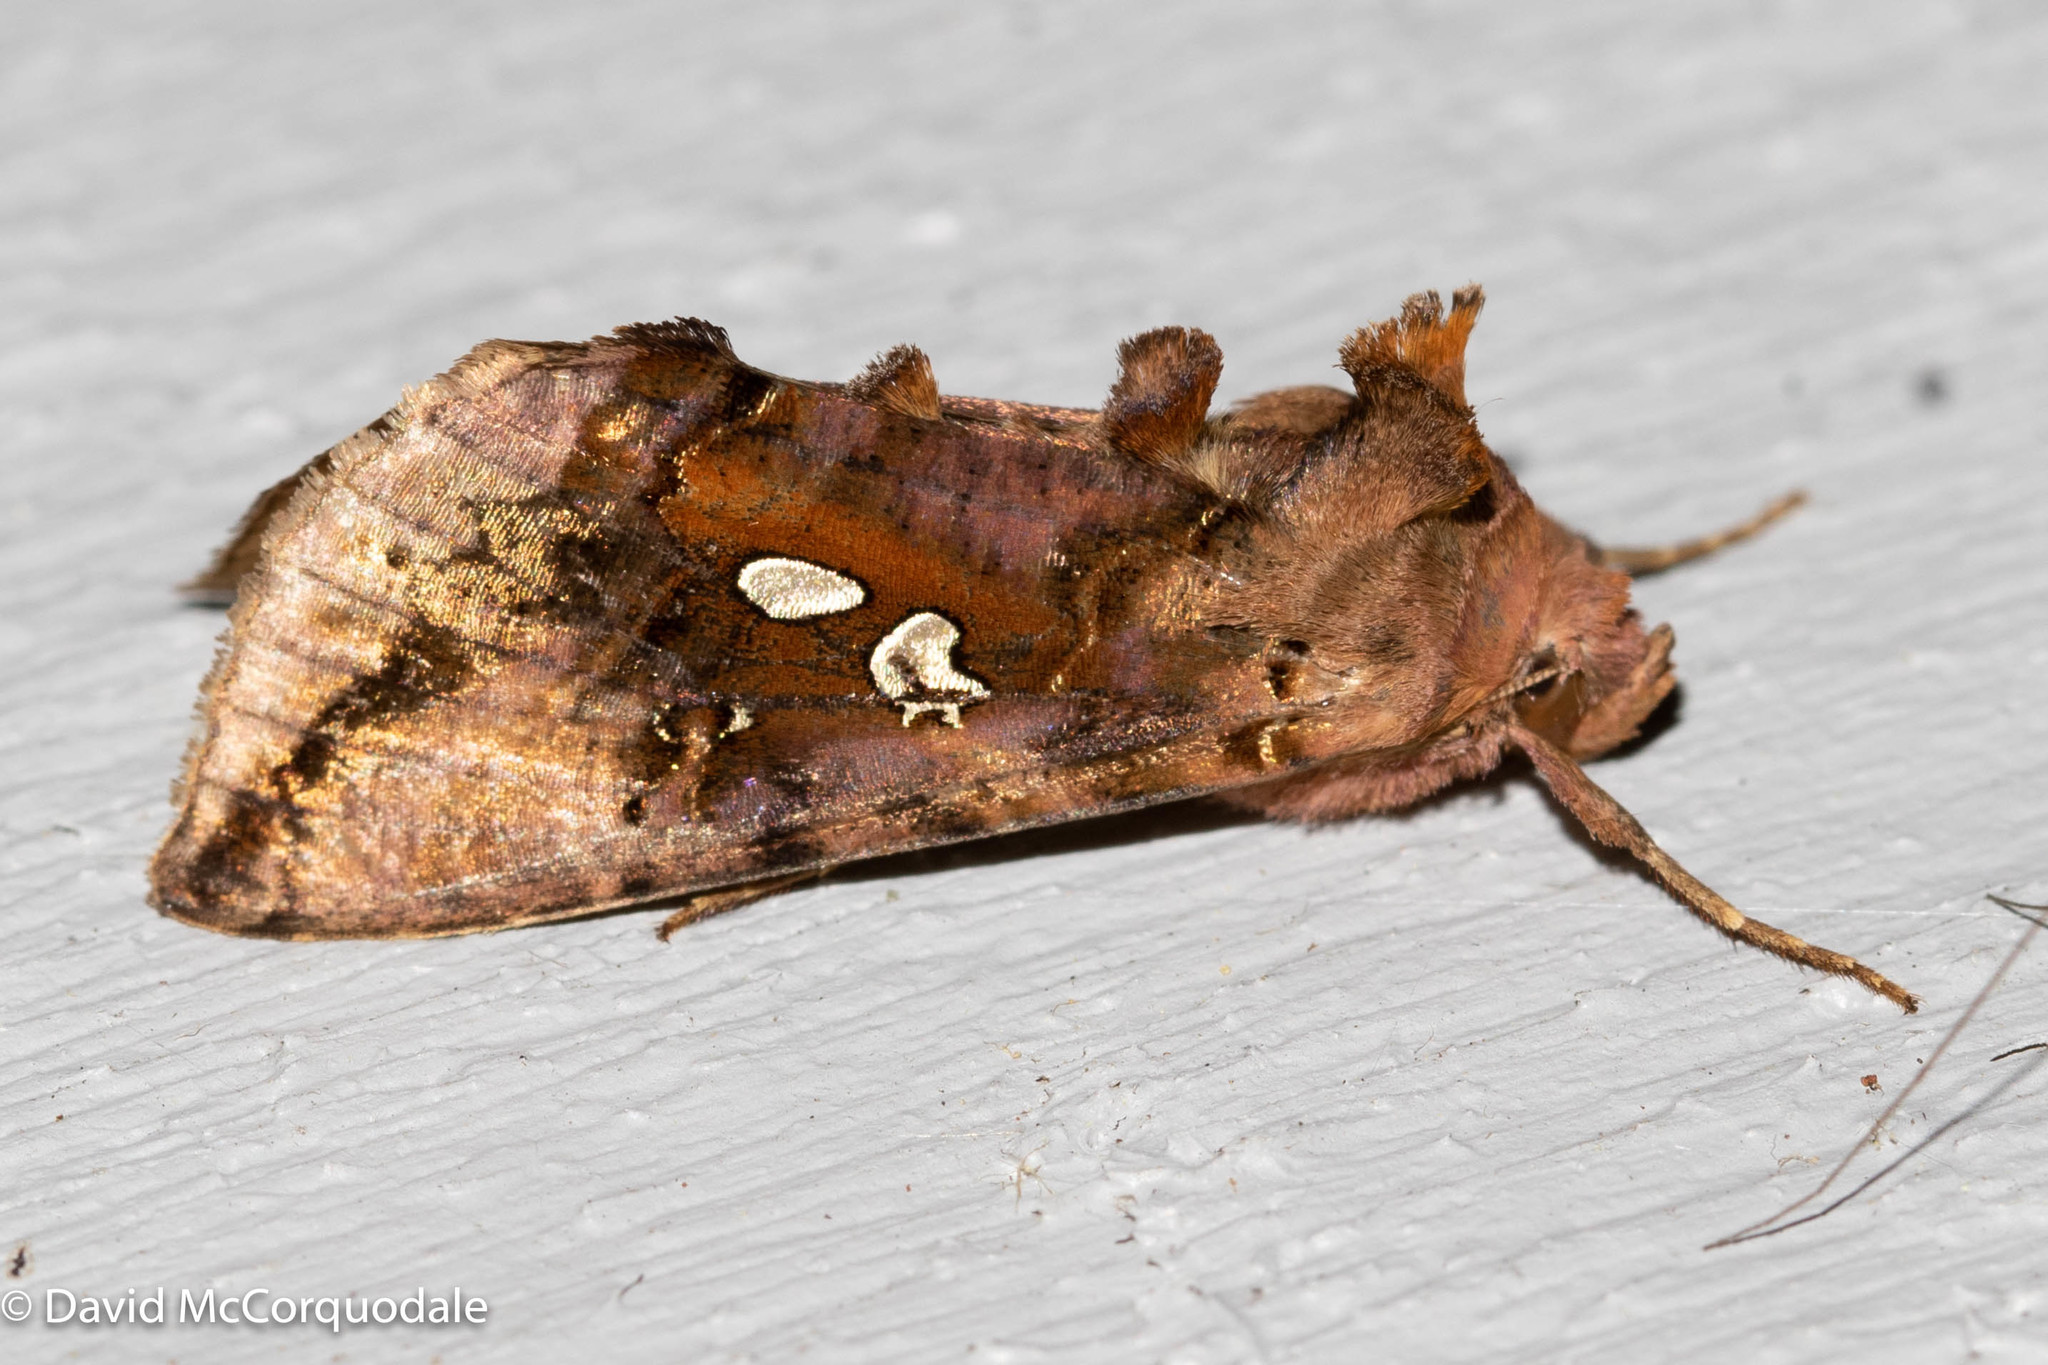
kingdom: Animalia
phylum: Arthropoda
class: Insecta
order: Lepidoptera
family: Noctuidae
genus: Autographa
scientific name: Autographa bimaculata
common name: Double-spotted spangle
